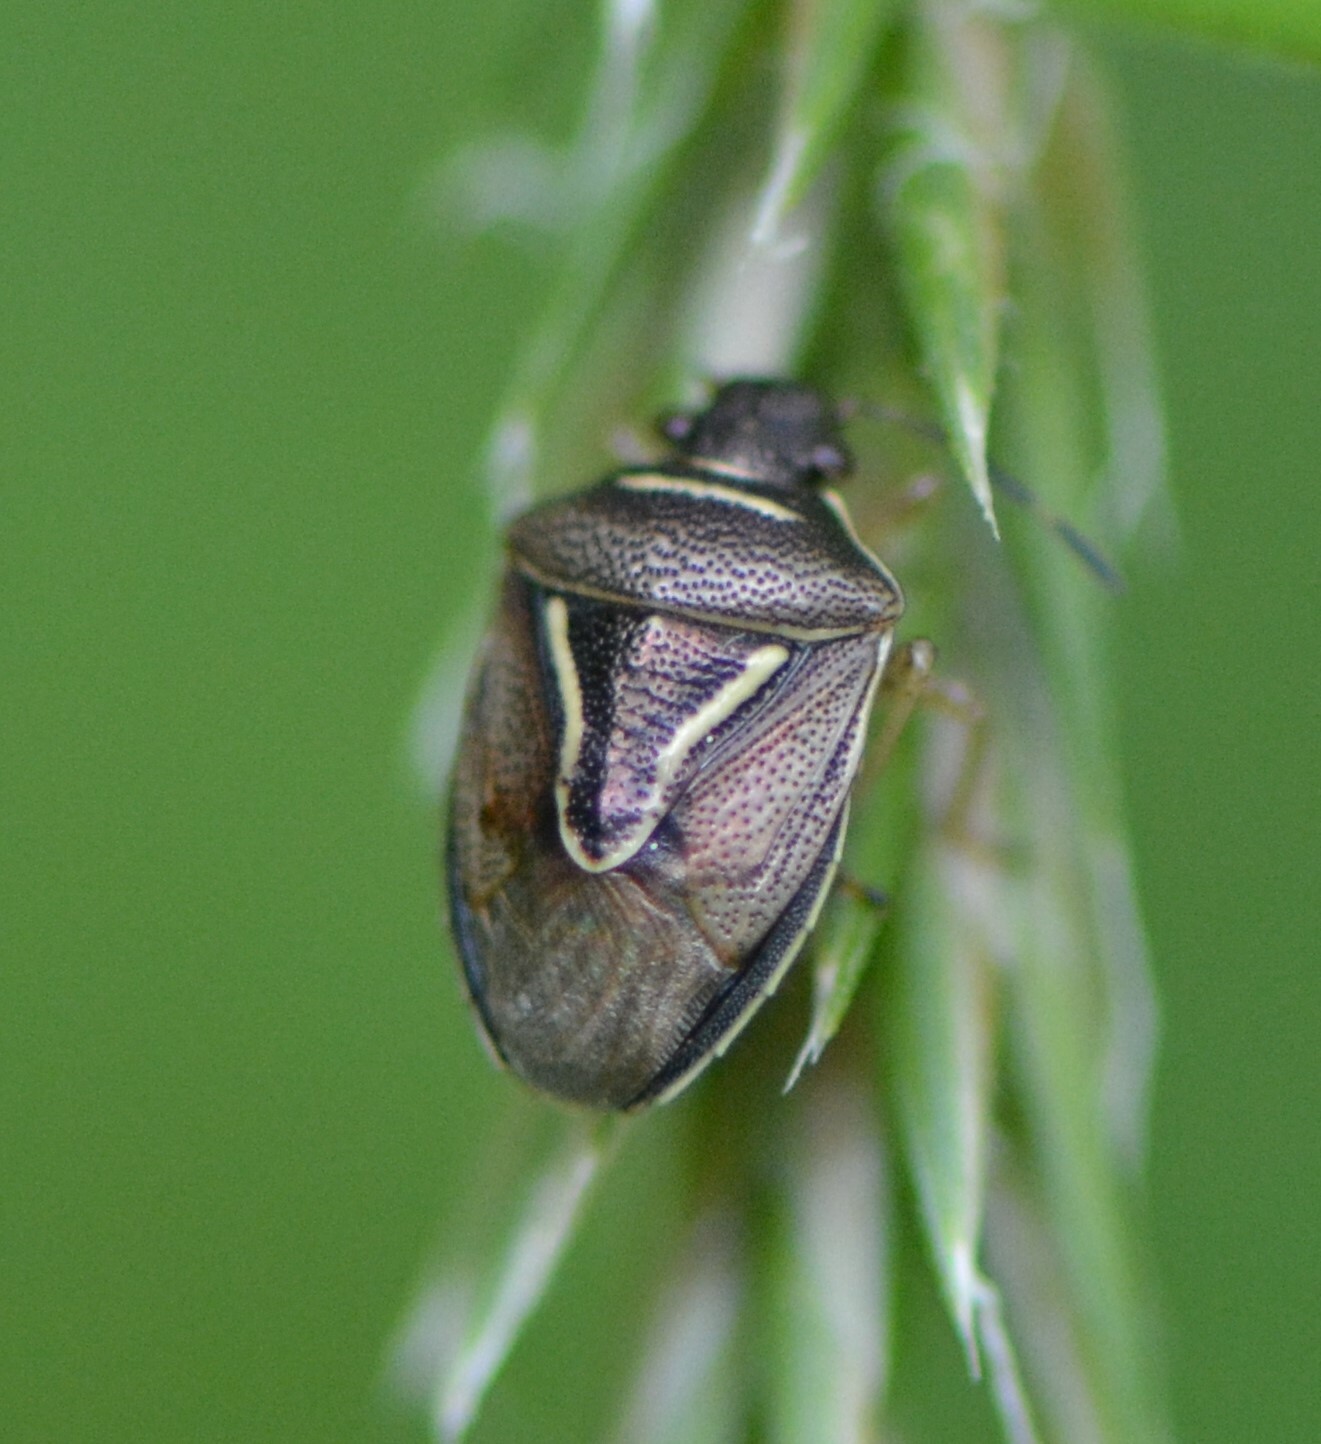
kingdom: Animalia
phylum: Arthropoda
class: Insecta
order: Hemiptera
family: Pentatomidae
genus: Mormidea
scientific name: Mormidea lugens
